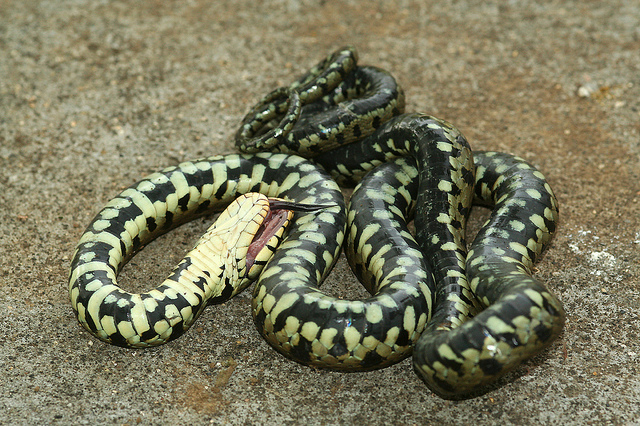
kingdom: Animalia
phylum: Chordata
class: Squamata
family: Colubridae
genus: Natrix
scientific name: Natrix helvetica
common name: Banded grass snake
